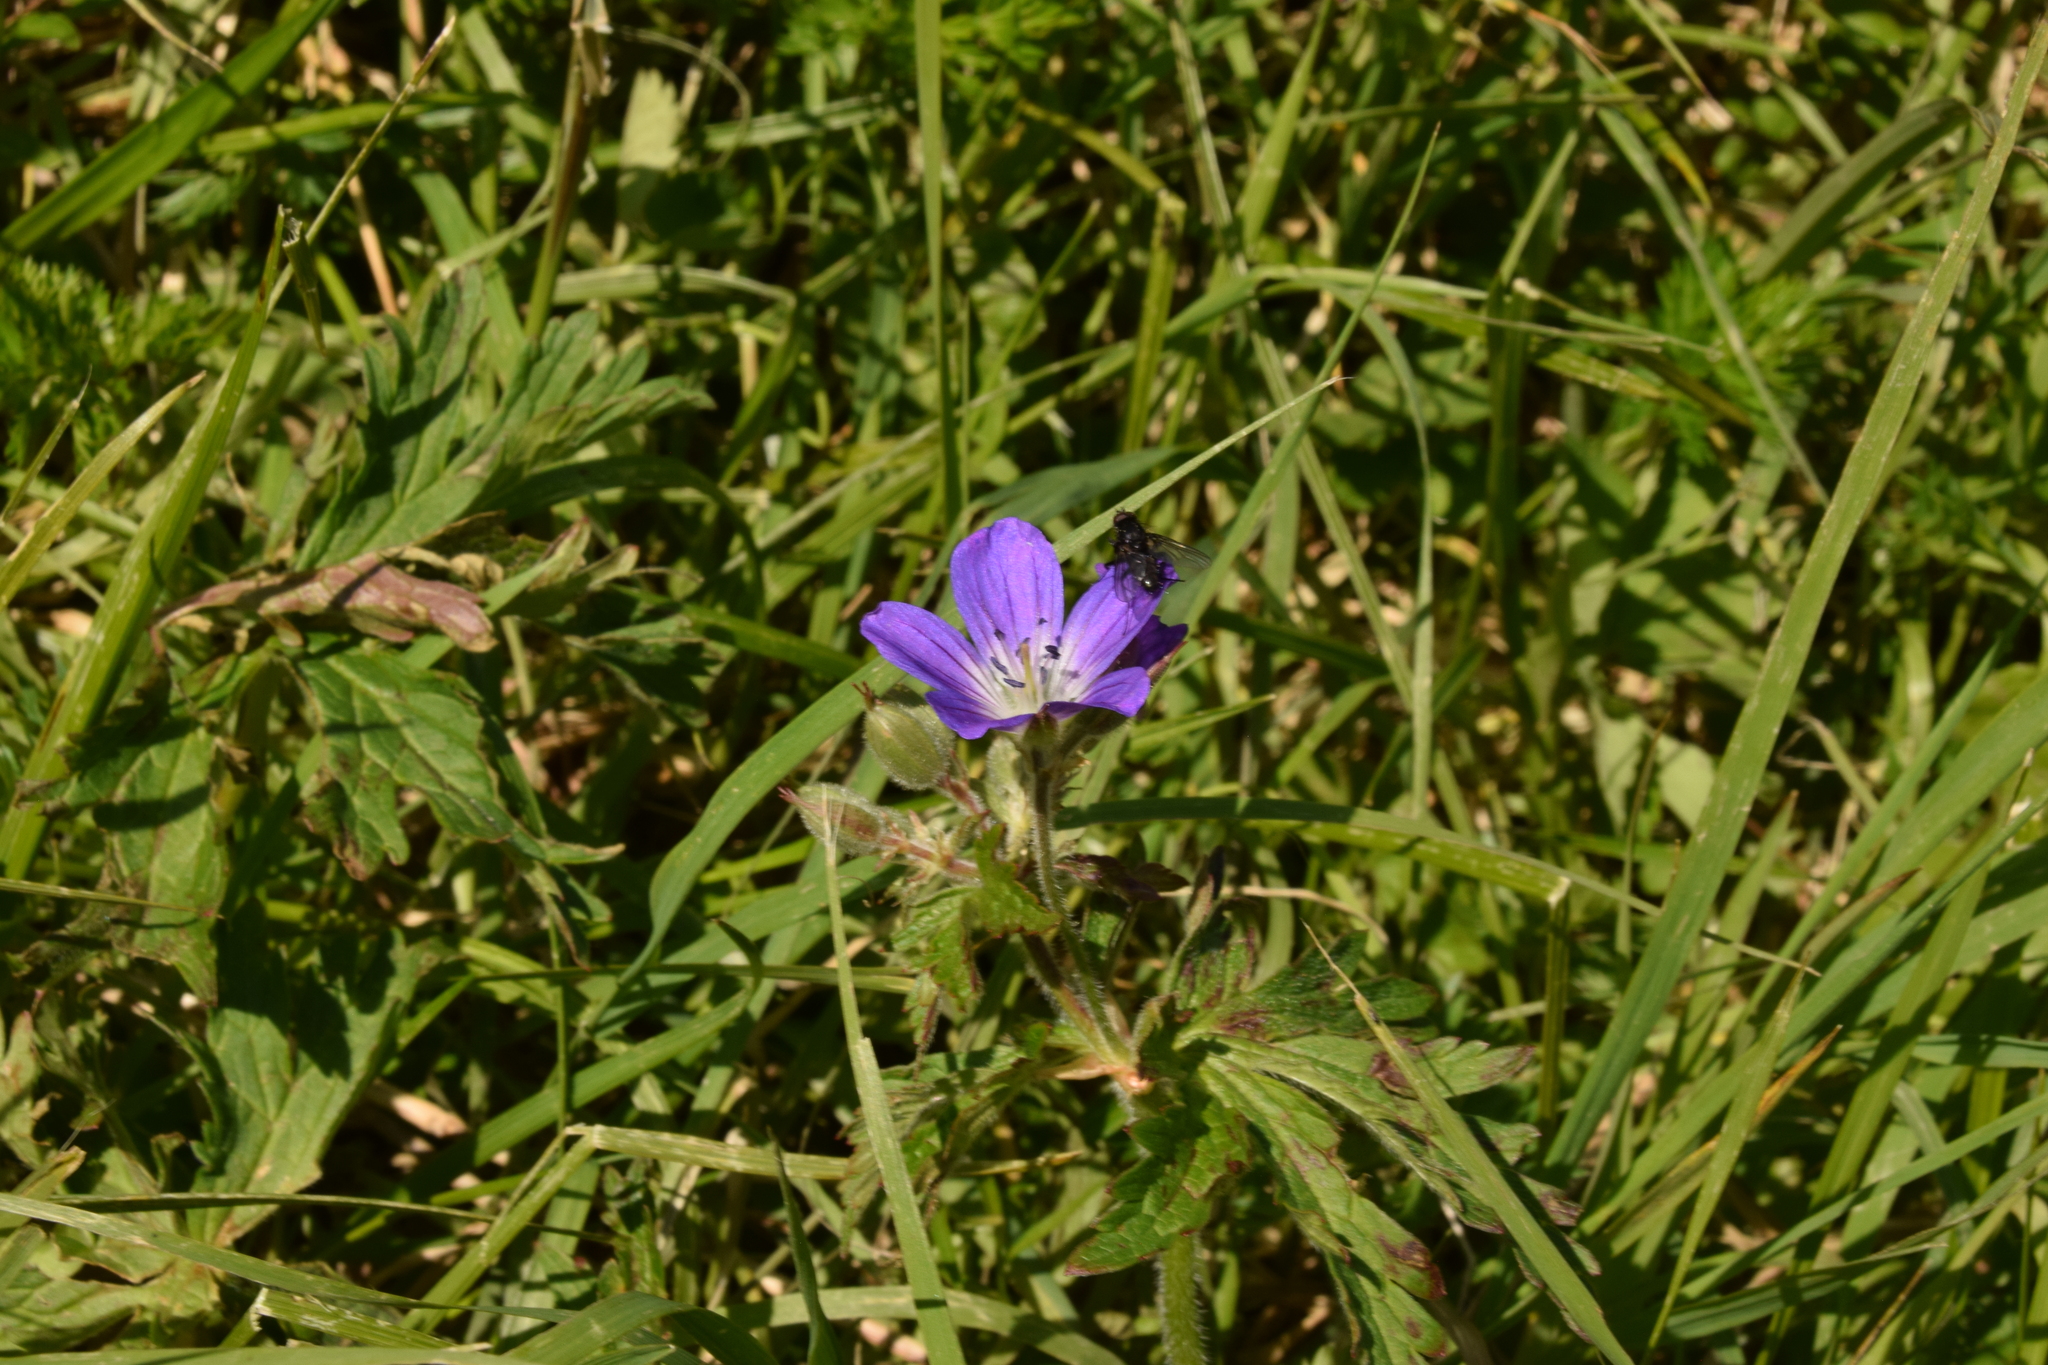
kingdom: Plantae
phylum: Tracheophyta
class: Magnoliopsida
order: Geraniales
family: Geraniaceae
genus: Geranium
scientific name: Geranium sylvaticum
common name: Wood crane's-bill
